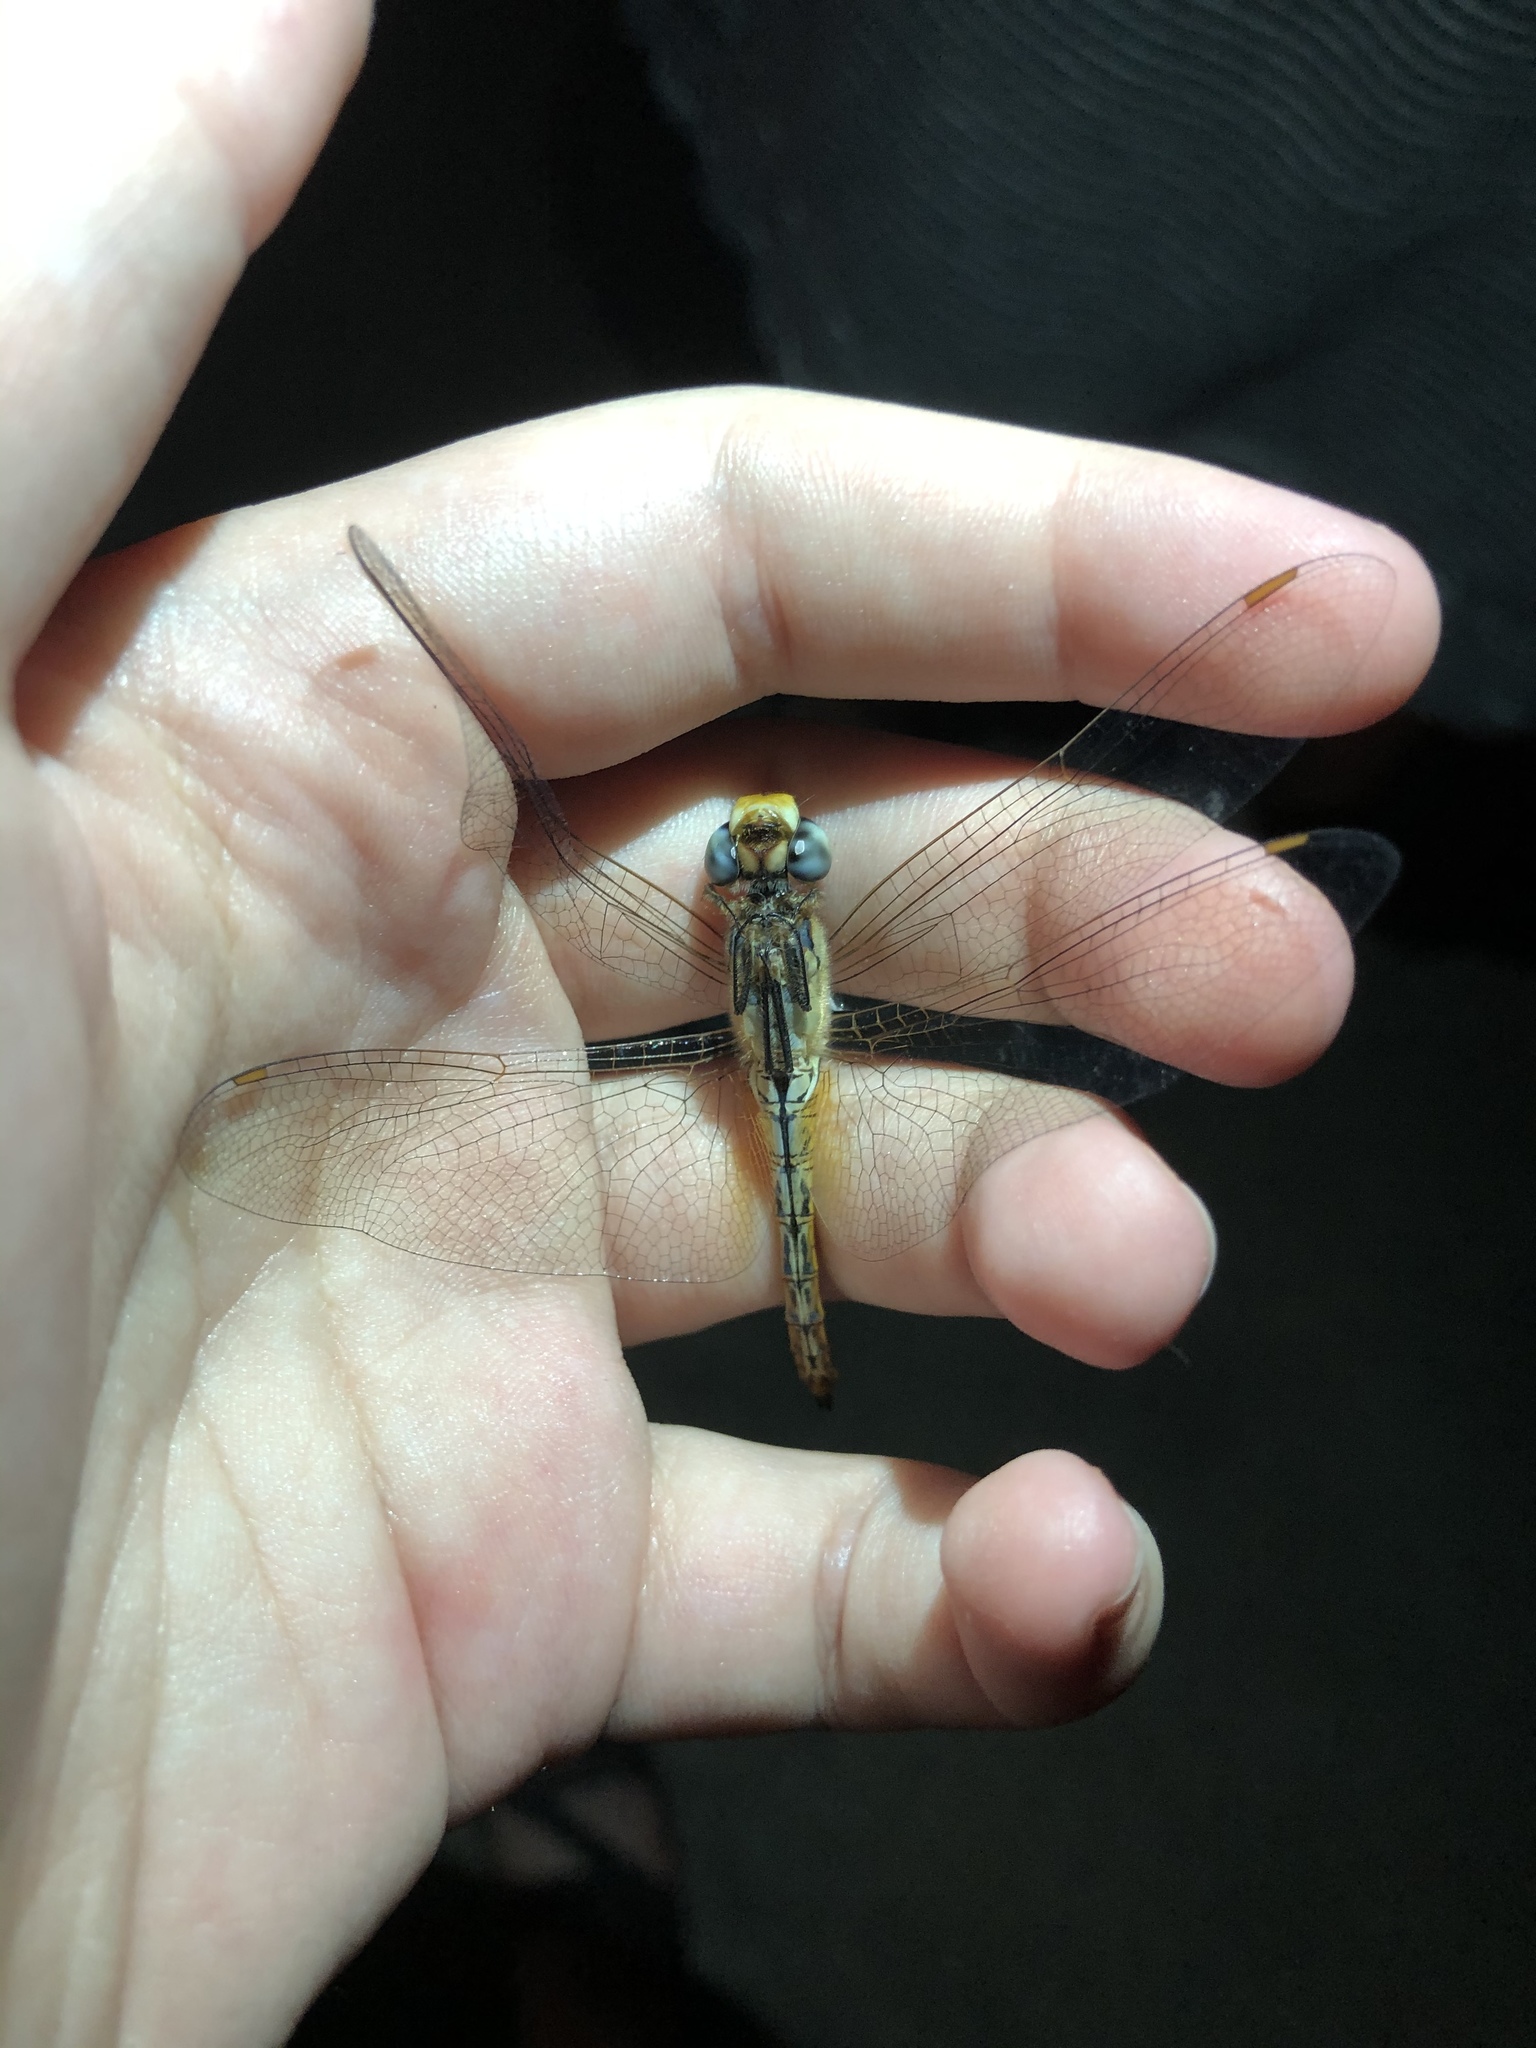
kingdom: Animalia
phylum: Arthropoda
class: Insecta
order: Odonata
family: Libellulidae
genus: Pantala
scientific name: Pantala flavescens
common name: Wandering glider
